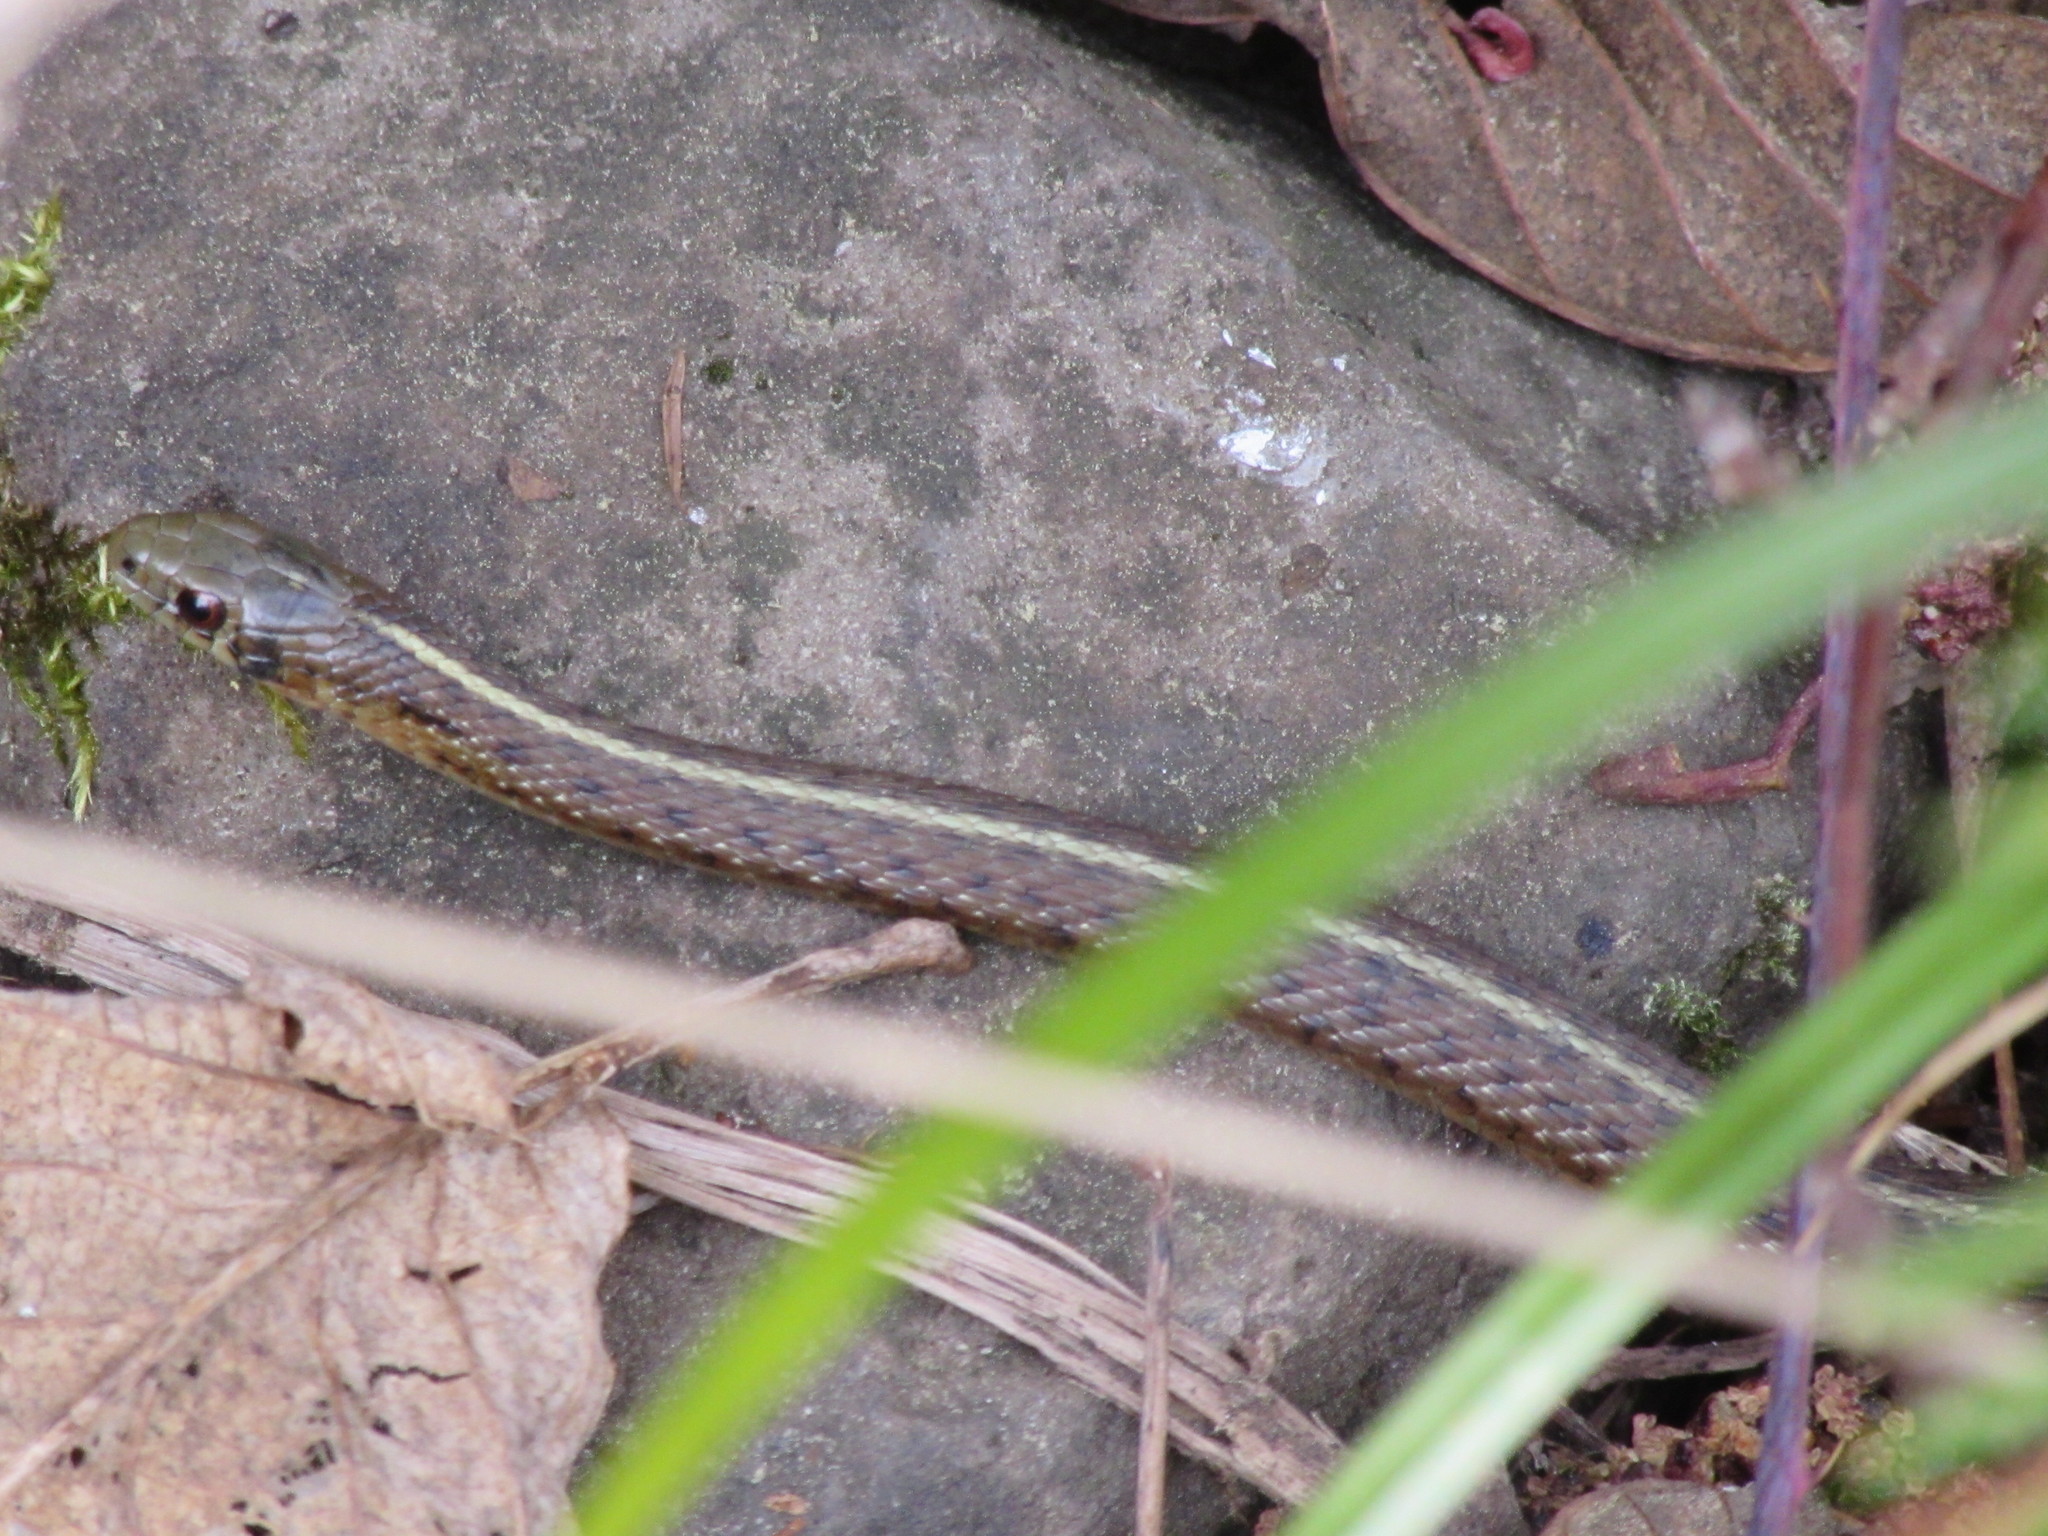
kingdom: Animalia
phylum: Chordata
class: Squamata
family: Colubridae
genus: Thamnophis
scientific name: Thamnophis ordinoides
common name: Northwestern garter snake
